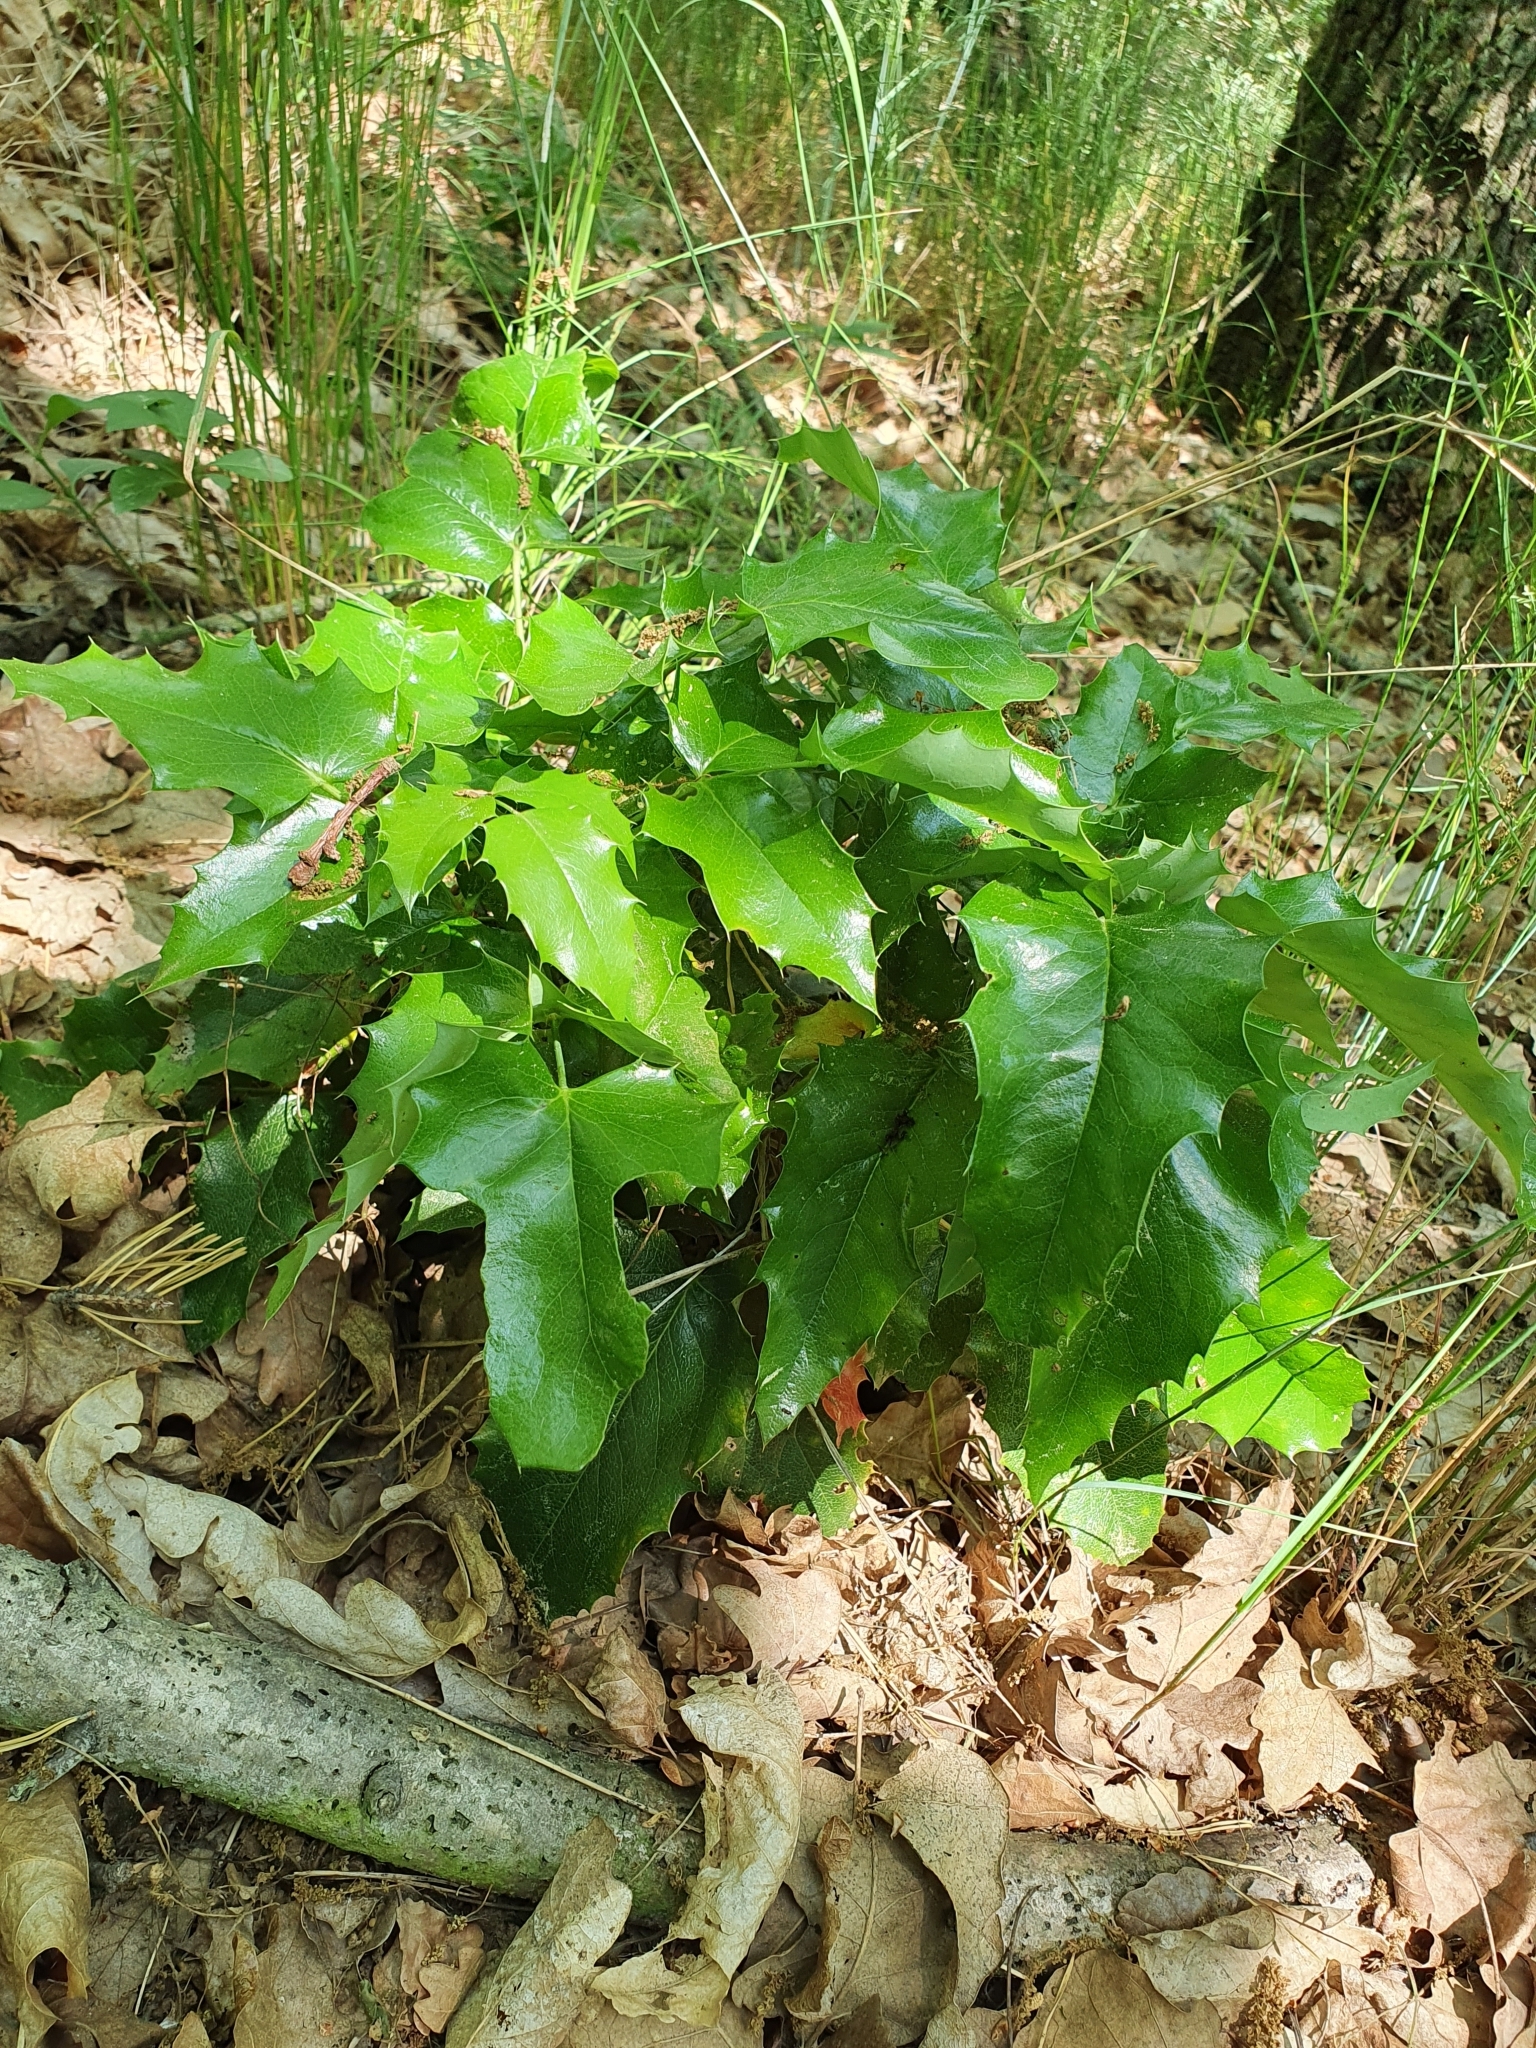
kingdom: Plantae
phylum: Tracheophyta
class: Magnoliopsida
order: Ranunculales
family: Berberidaceae
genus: Mahonia
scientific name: Mahonia aquifolium
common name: Oregon-grape
